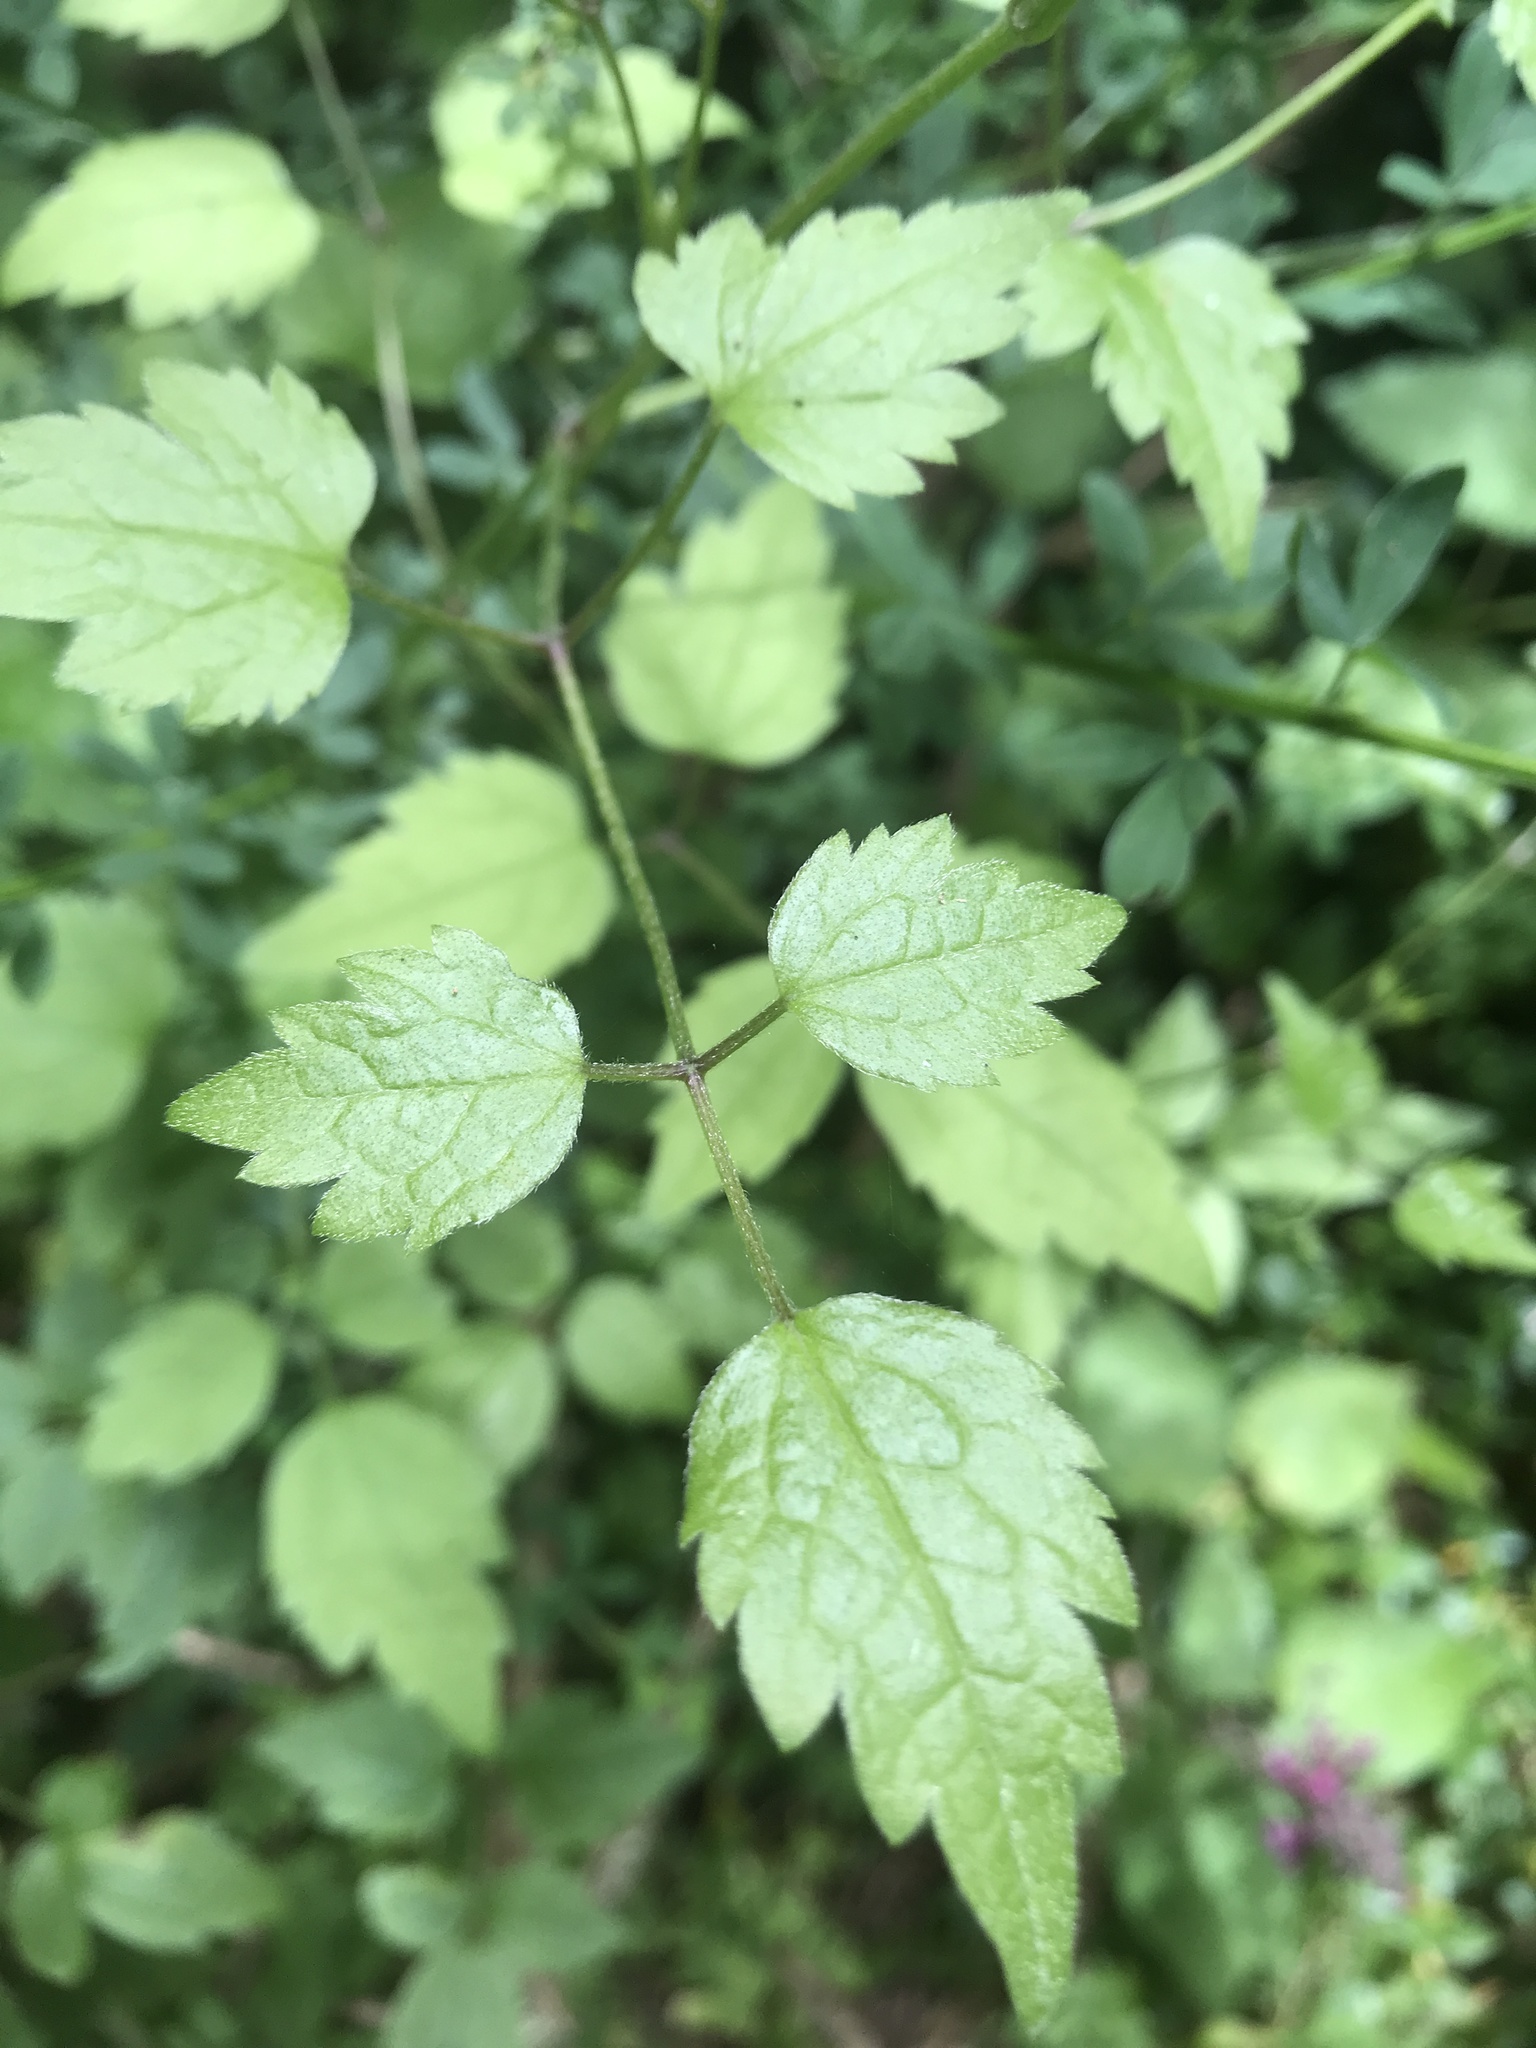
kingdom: Plantae
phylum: Tracheophyta
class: Magnoliopsida
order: Ranunculales
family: Ranunculaceae
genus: Clematis
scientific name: Clematis vitalba
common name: Evergreen clematis
